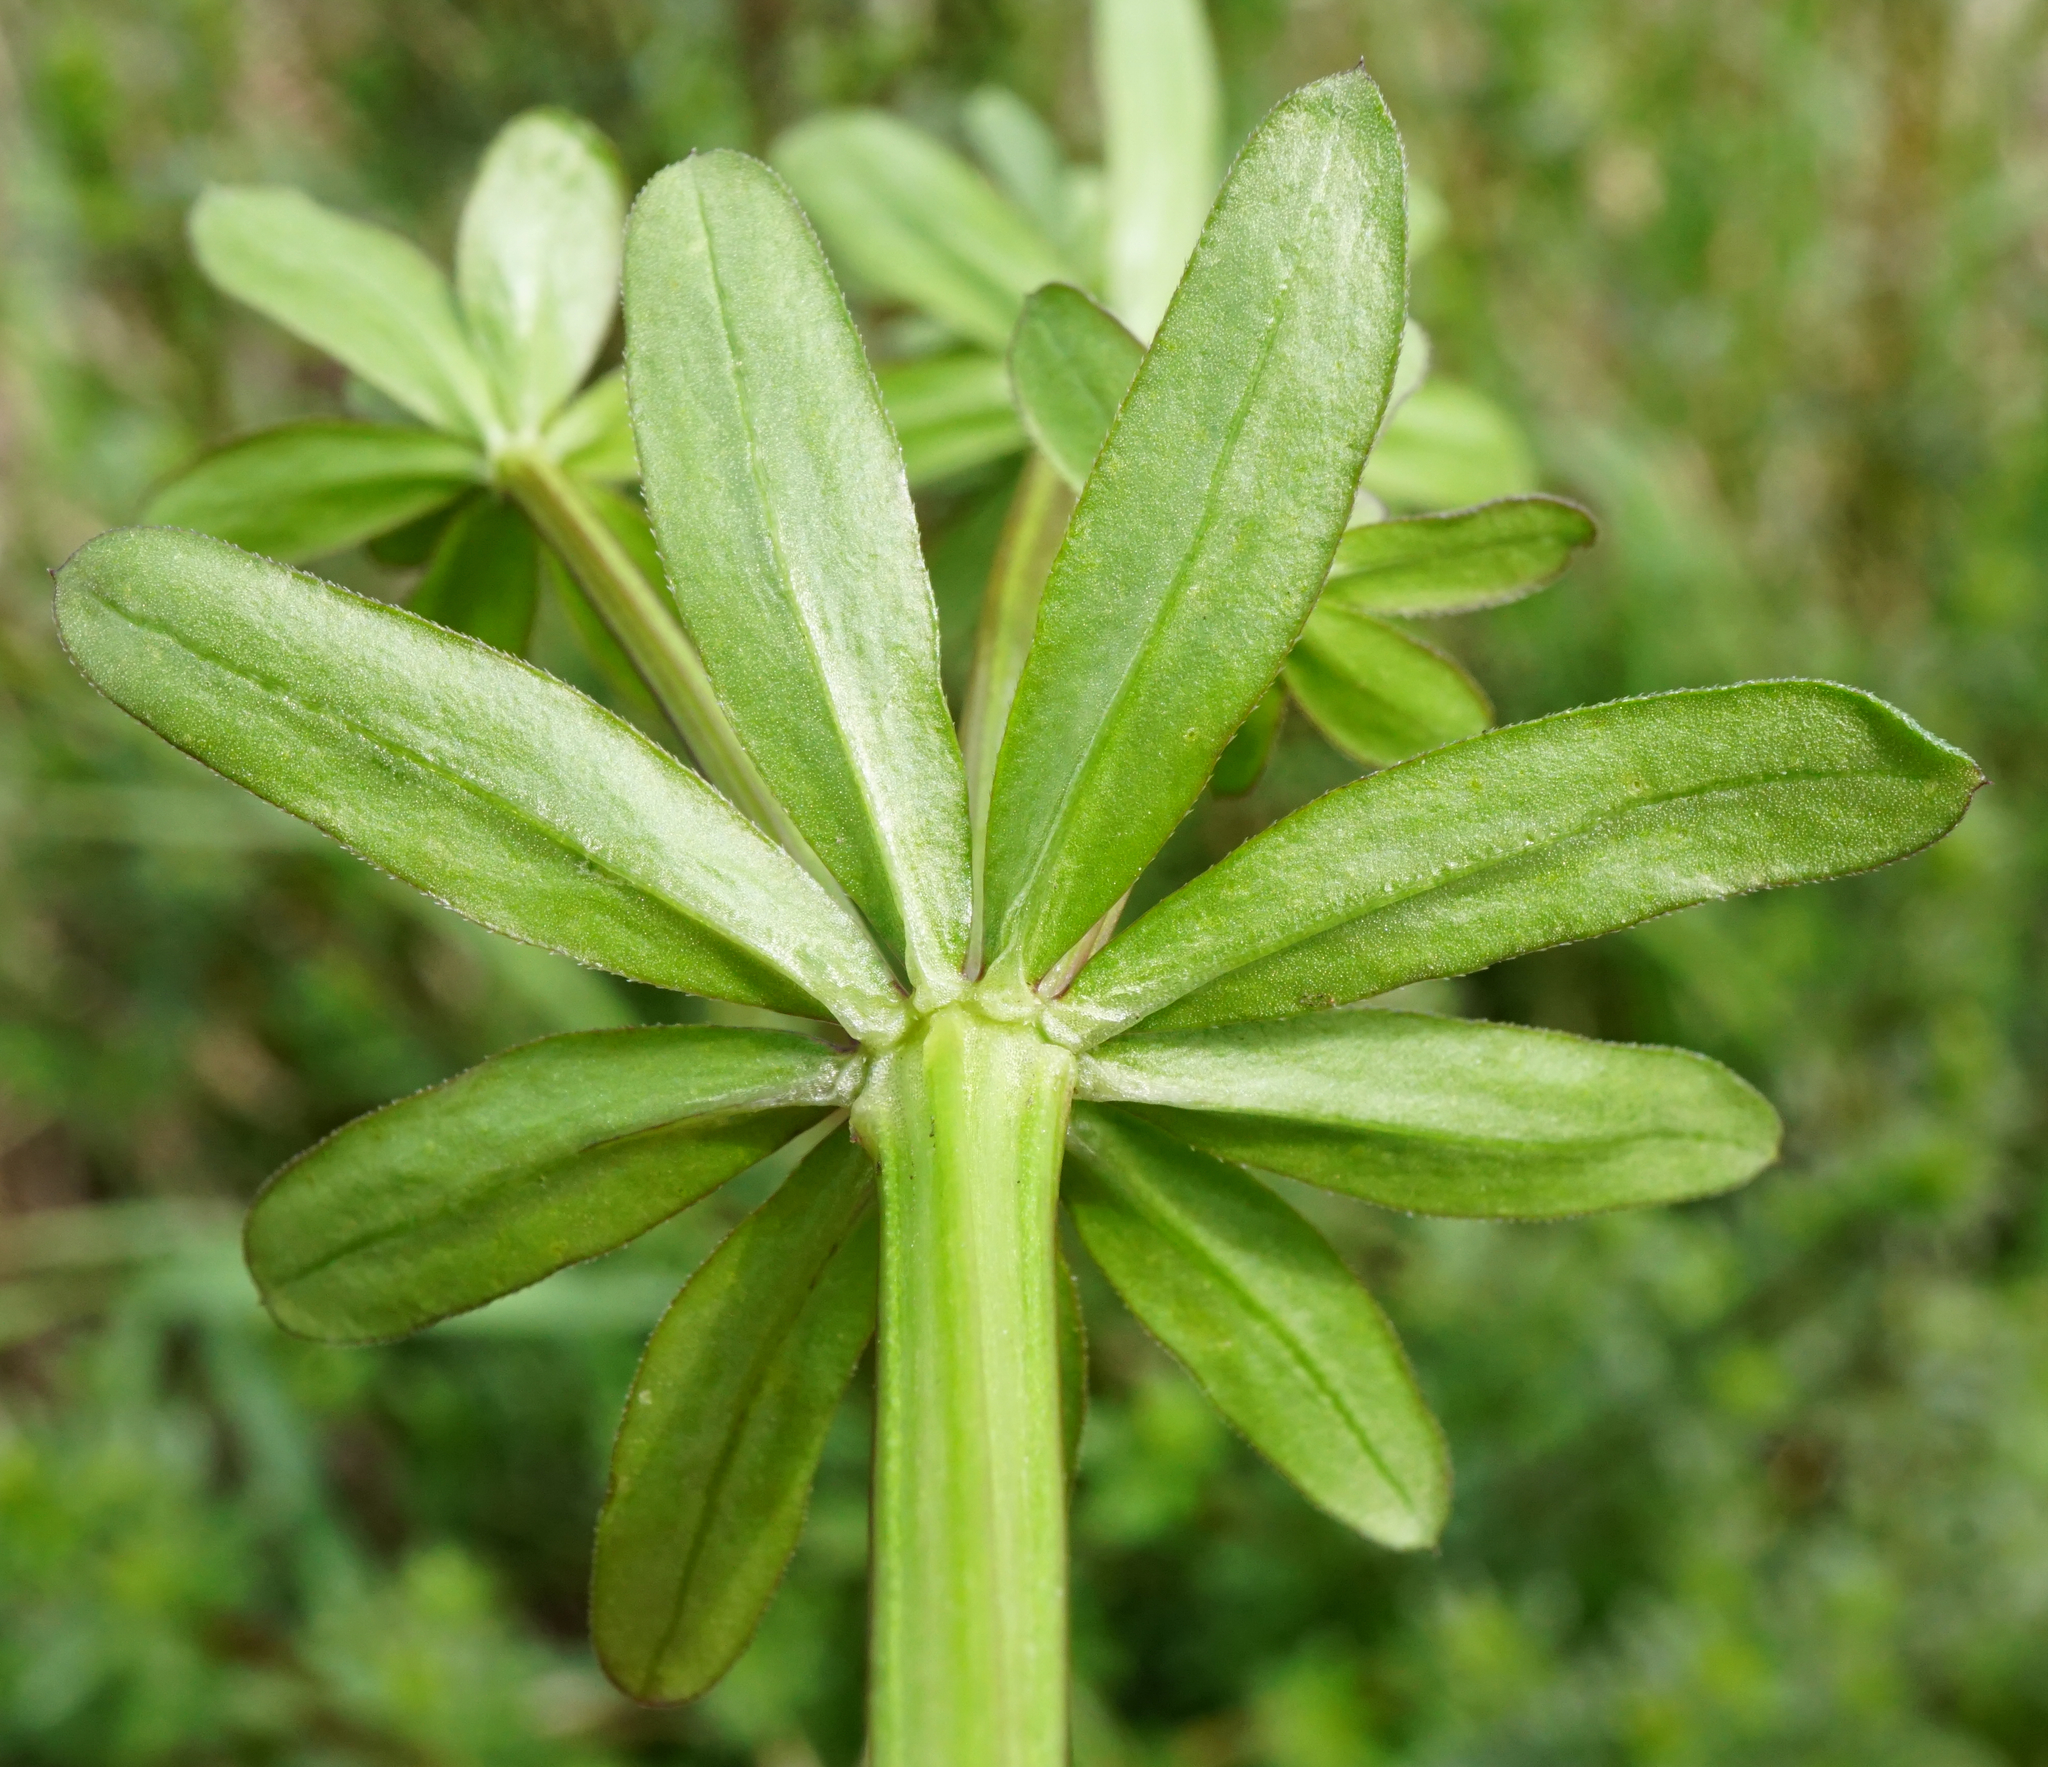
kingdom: Plantae
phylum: Tracheophyta
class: Magnoliopsida
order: Gentianales
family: Rubiaceae
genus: Galium
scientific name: Galium mollugo
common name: Hedge bedstraw
